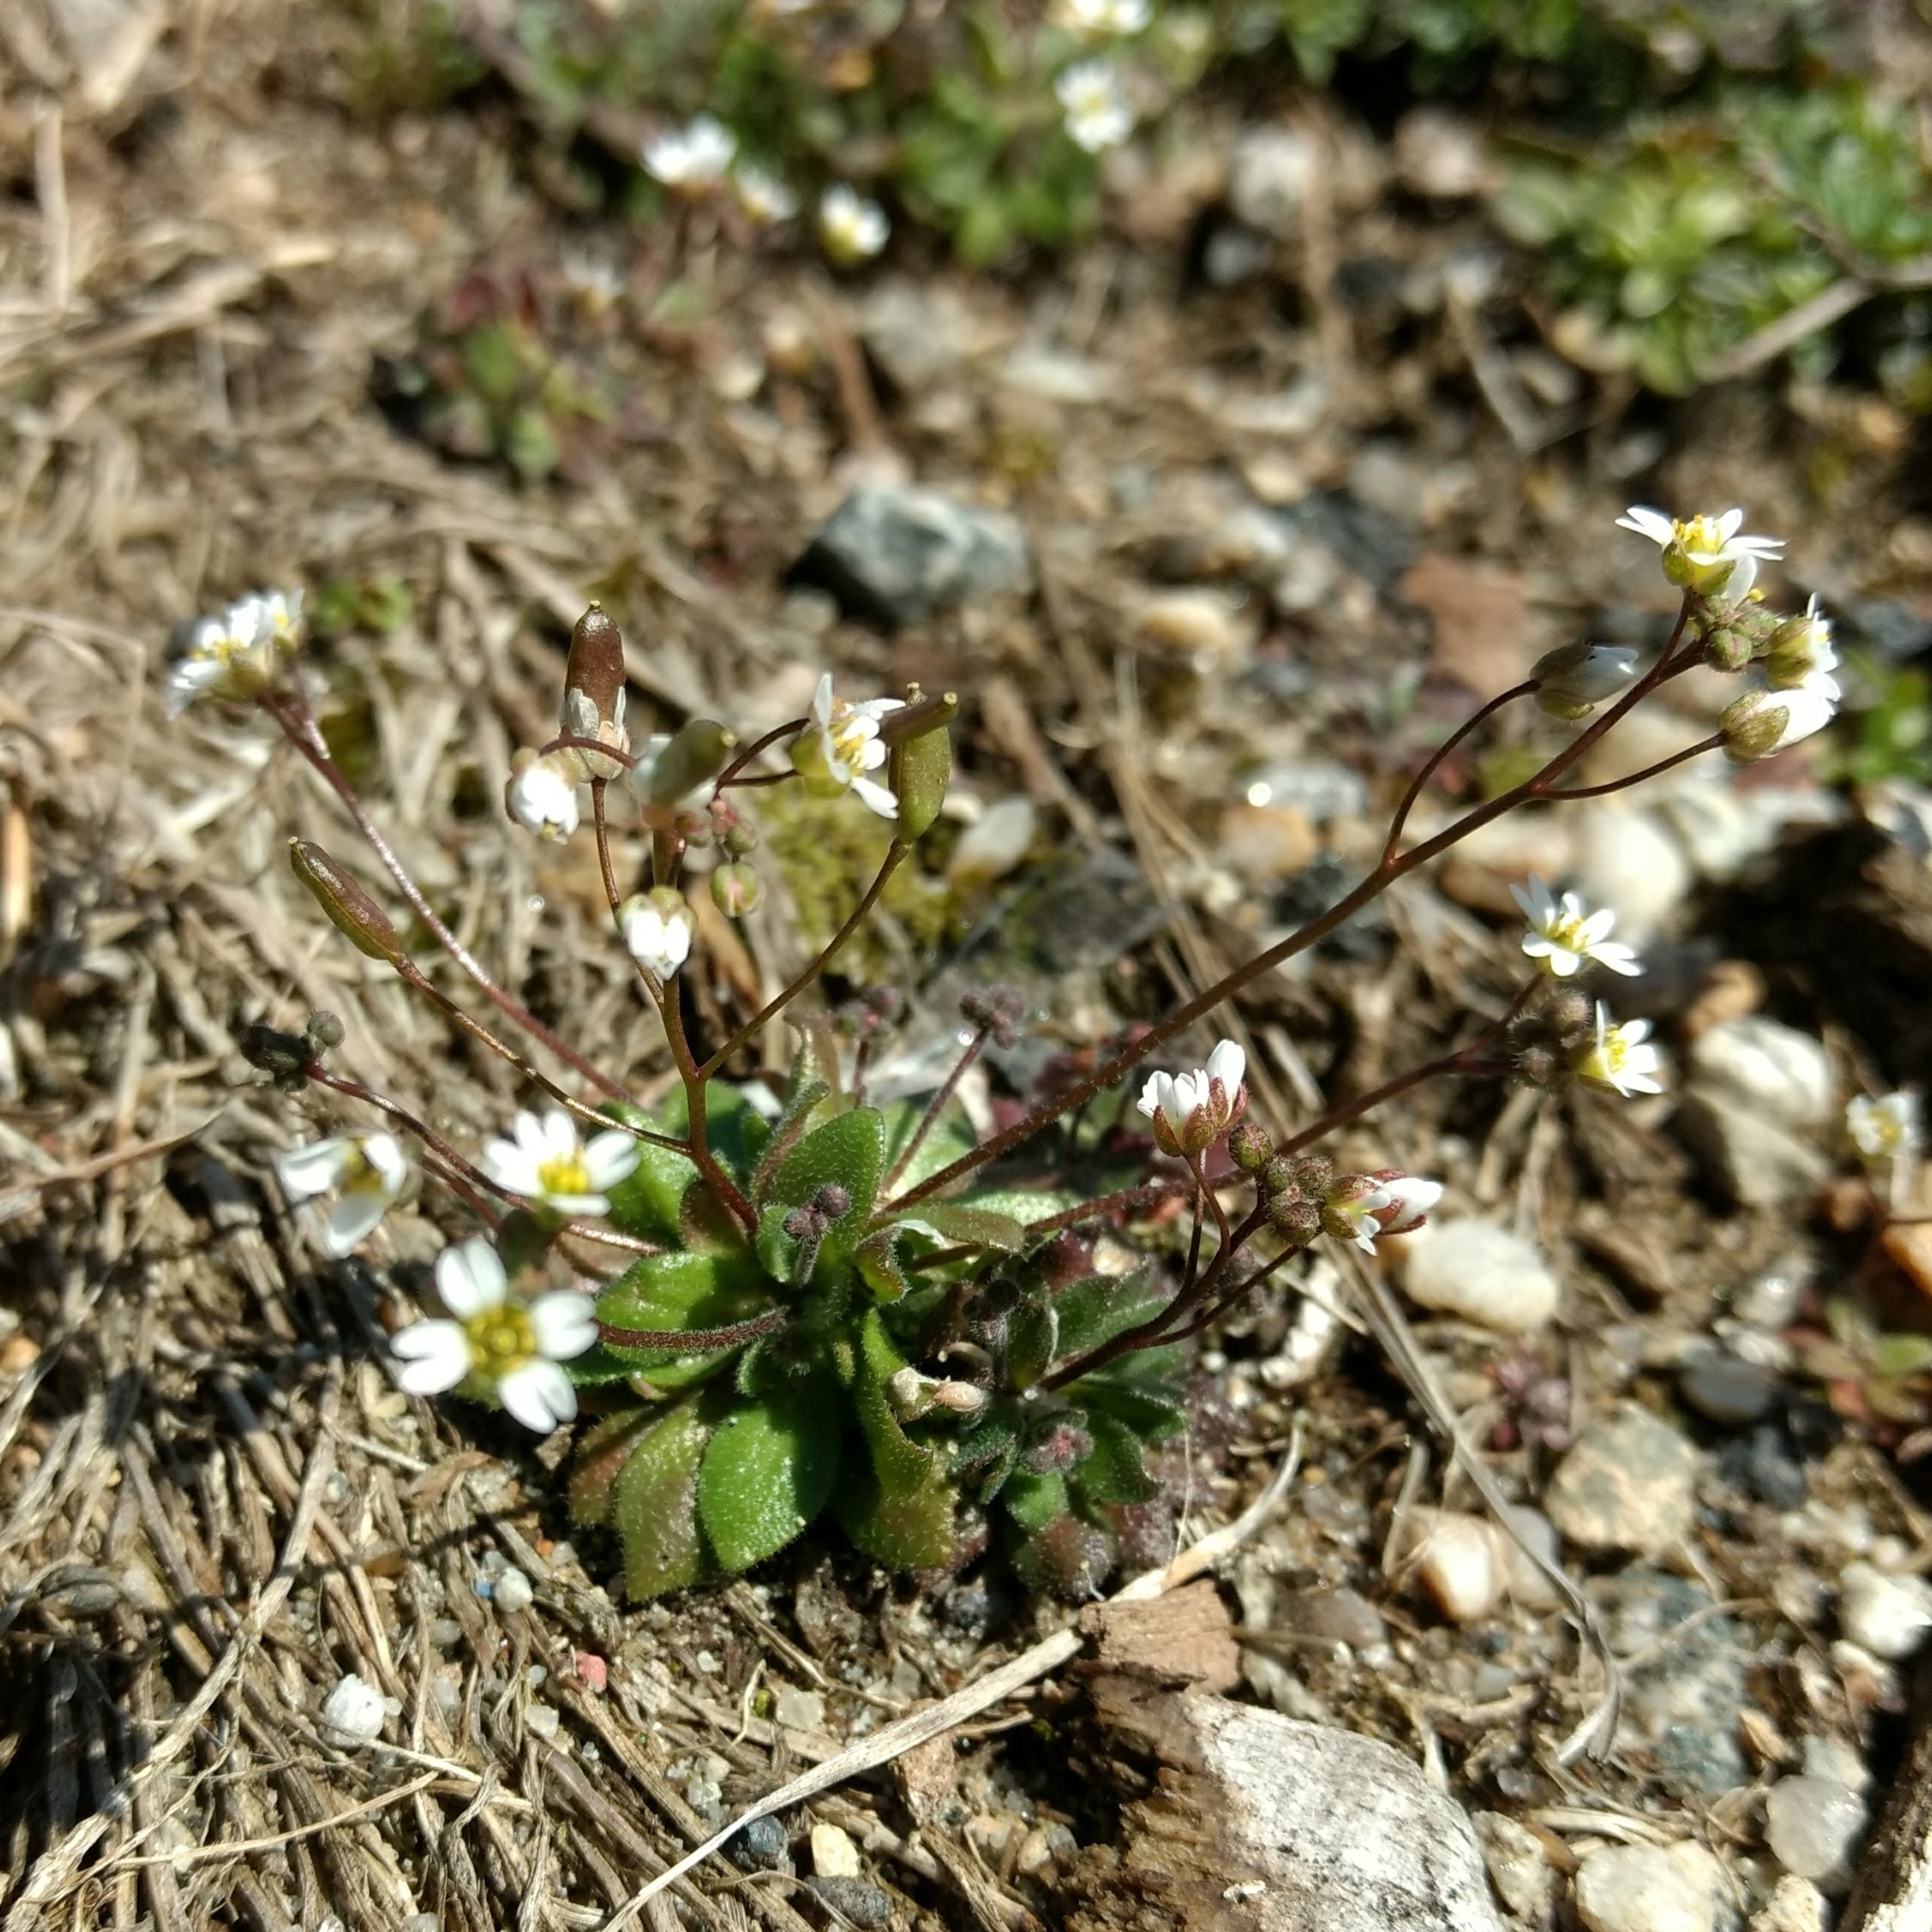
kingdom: Plantae
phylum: Tracheophyta
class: Magnoliopsida
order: Brassicales
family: Brassicaceae
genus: Draba
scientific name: Draba verna
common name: Spring draba
